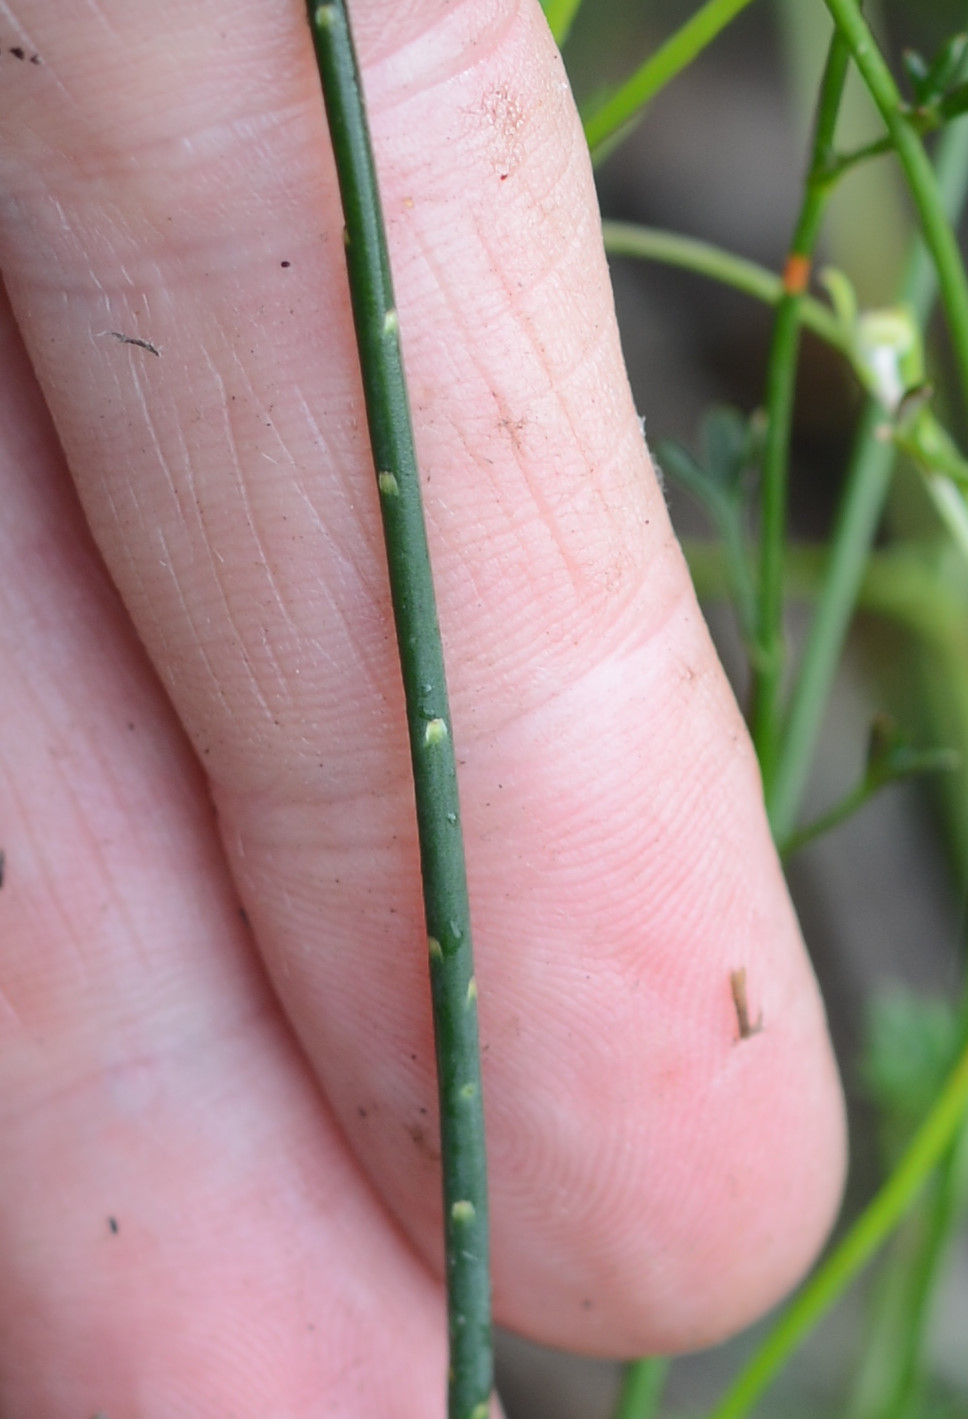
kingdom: Plantae
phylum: Tracheophyta
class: Magnoliopsida
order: Fabales
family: Fabaceae
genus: Sphaerolobium
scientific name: Sphaerolobium minus
